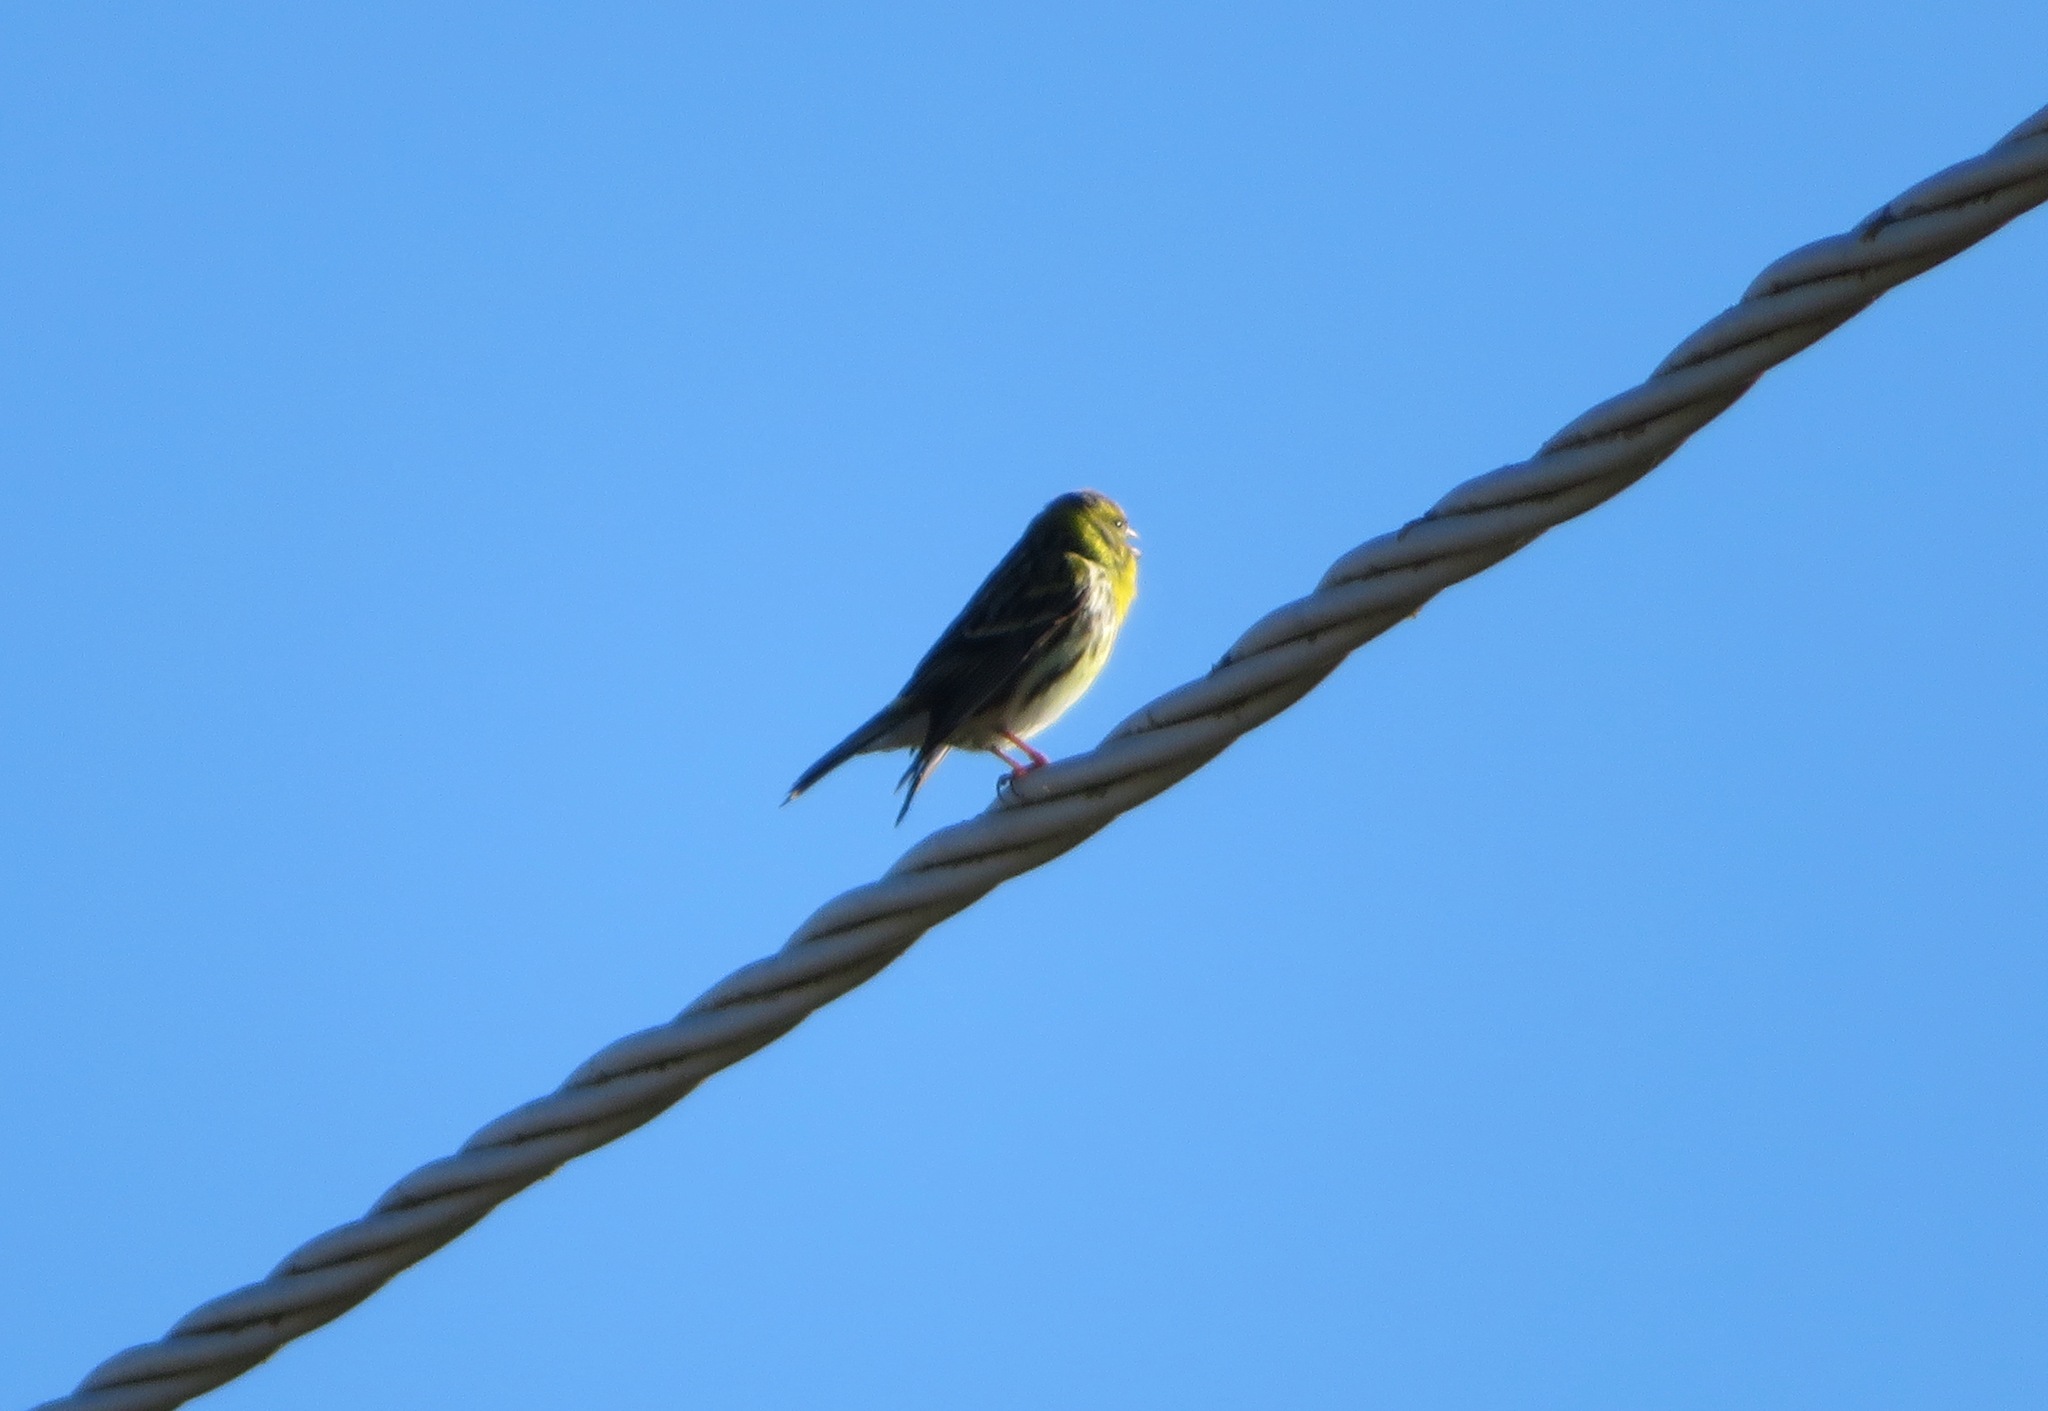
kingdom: Animalia
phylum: Chordata
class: Aves
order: Passeriformes
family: Fringillidae
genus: Serinus
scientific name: Serinus serinus
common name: European serin
